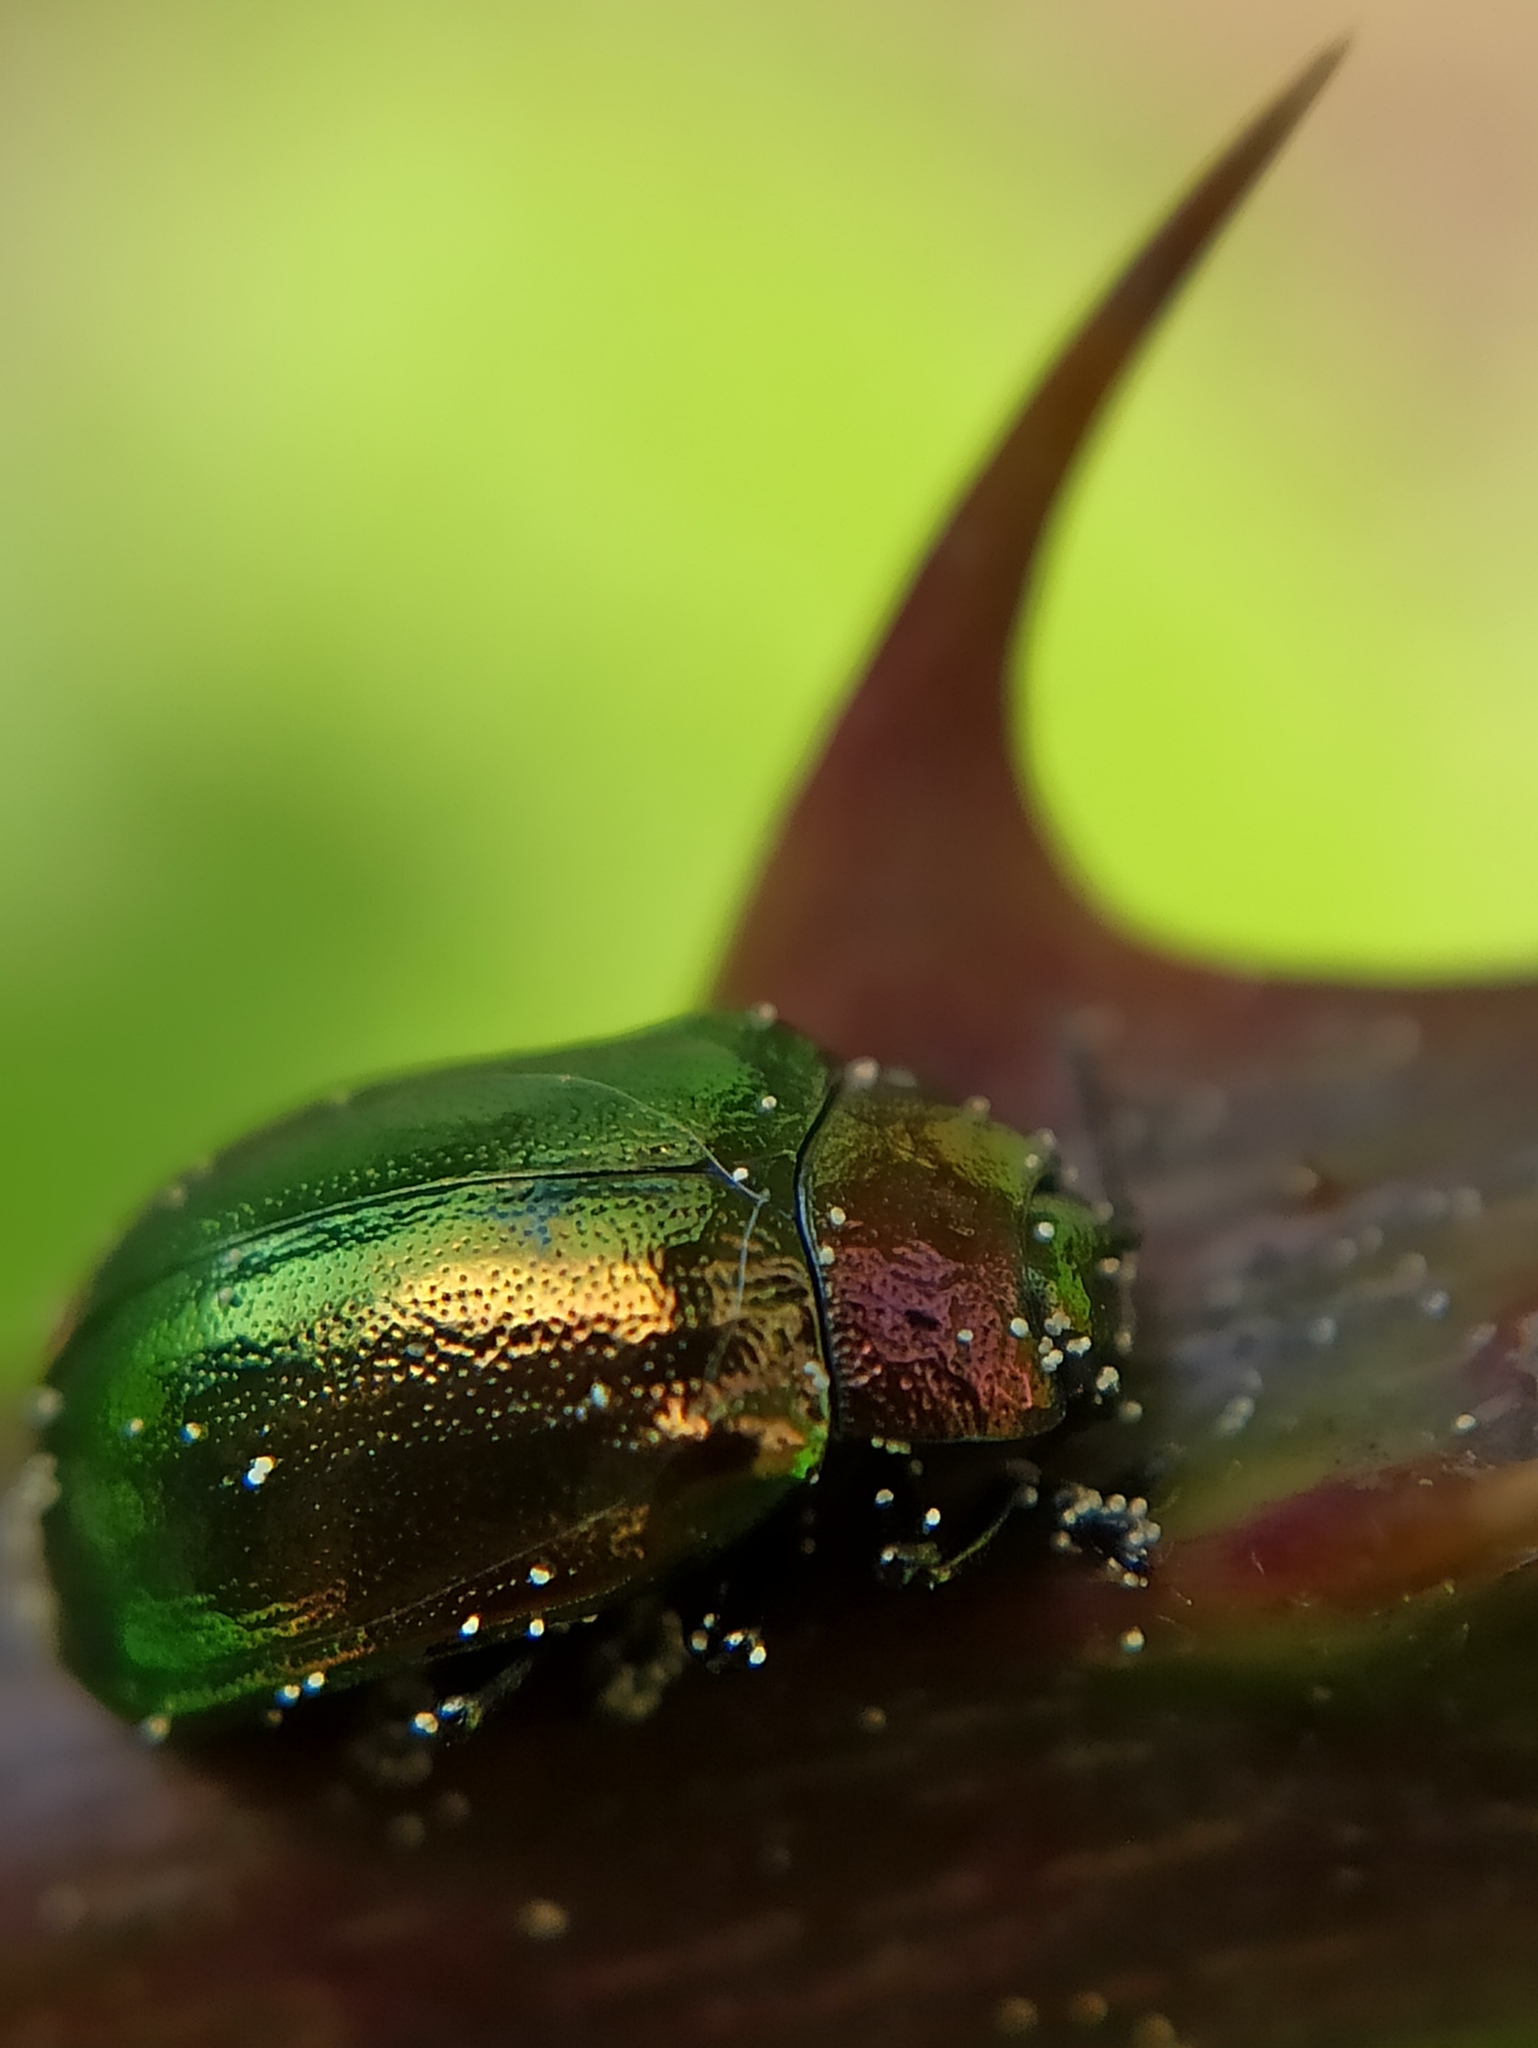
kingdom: Animalia
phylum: Arthropoda
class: Insecta
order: Coleoptera
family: Chrysomelidae
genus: Plagiosterna
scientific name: Plagiosterna aenea
